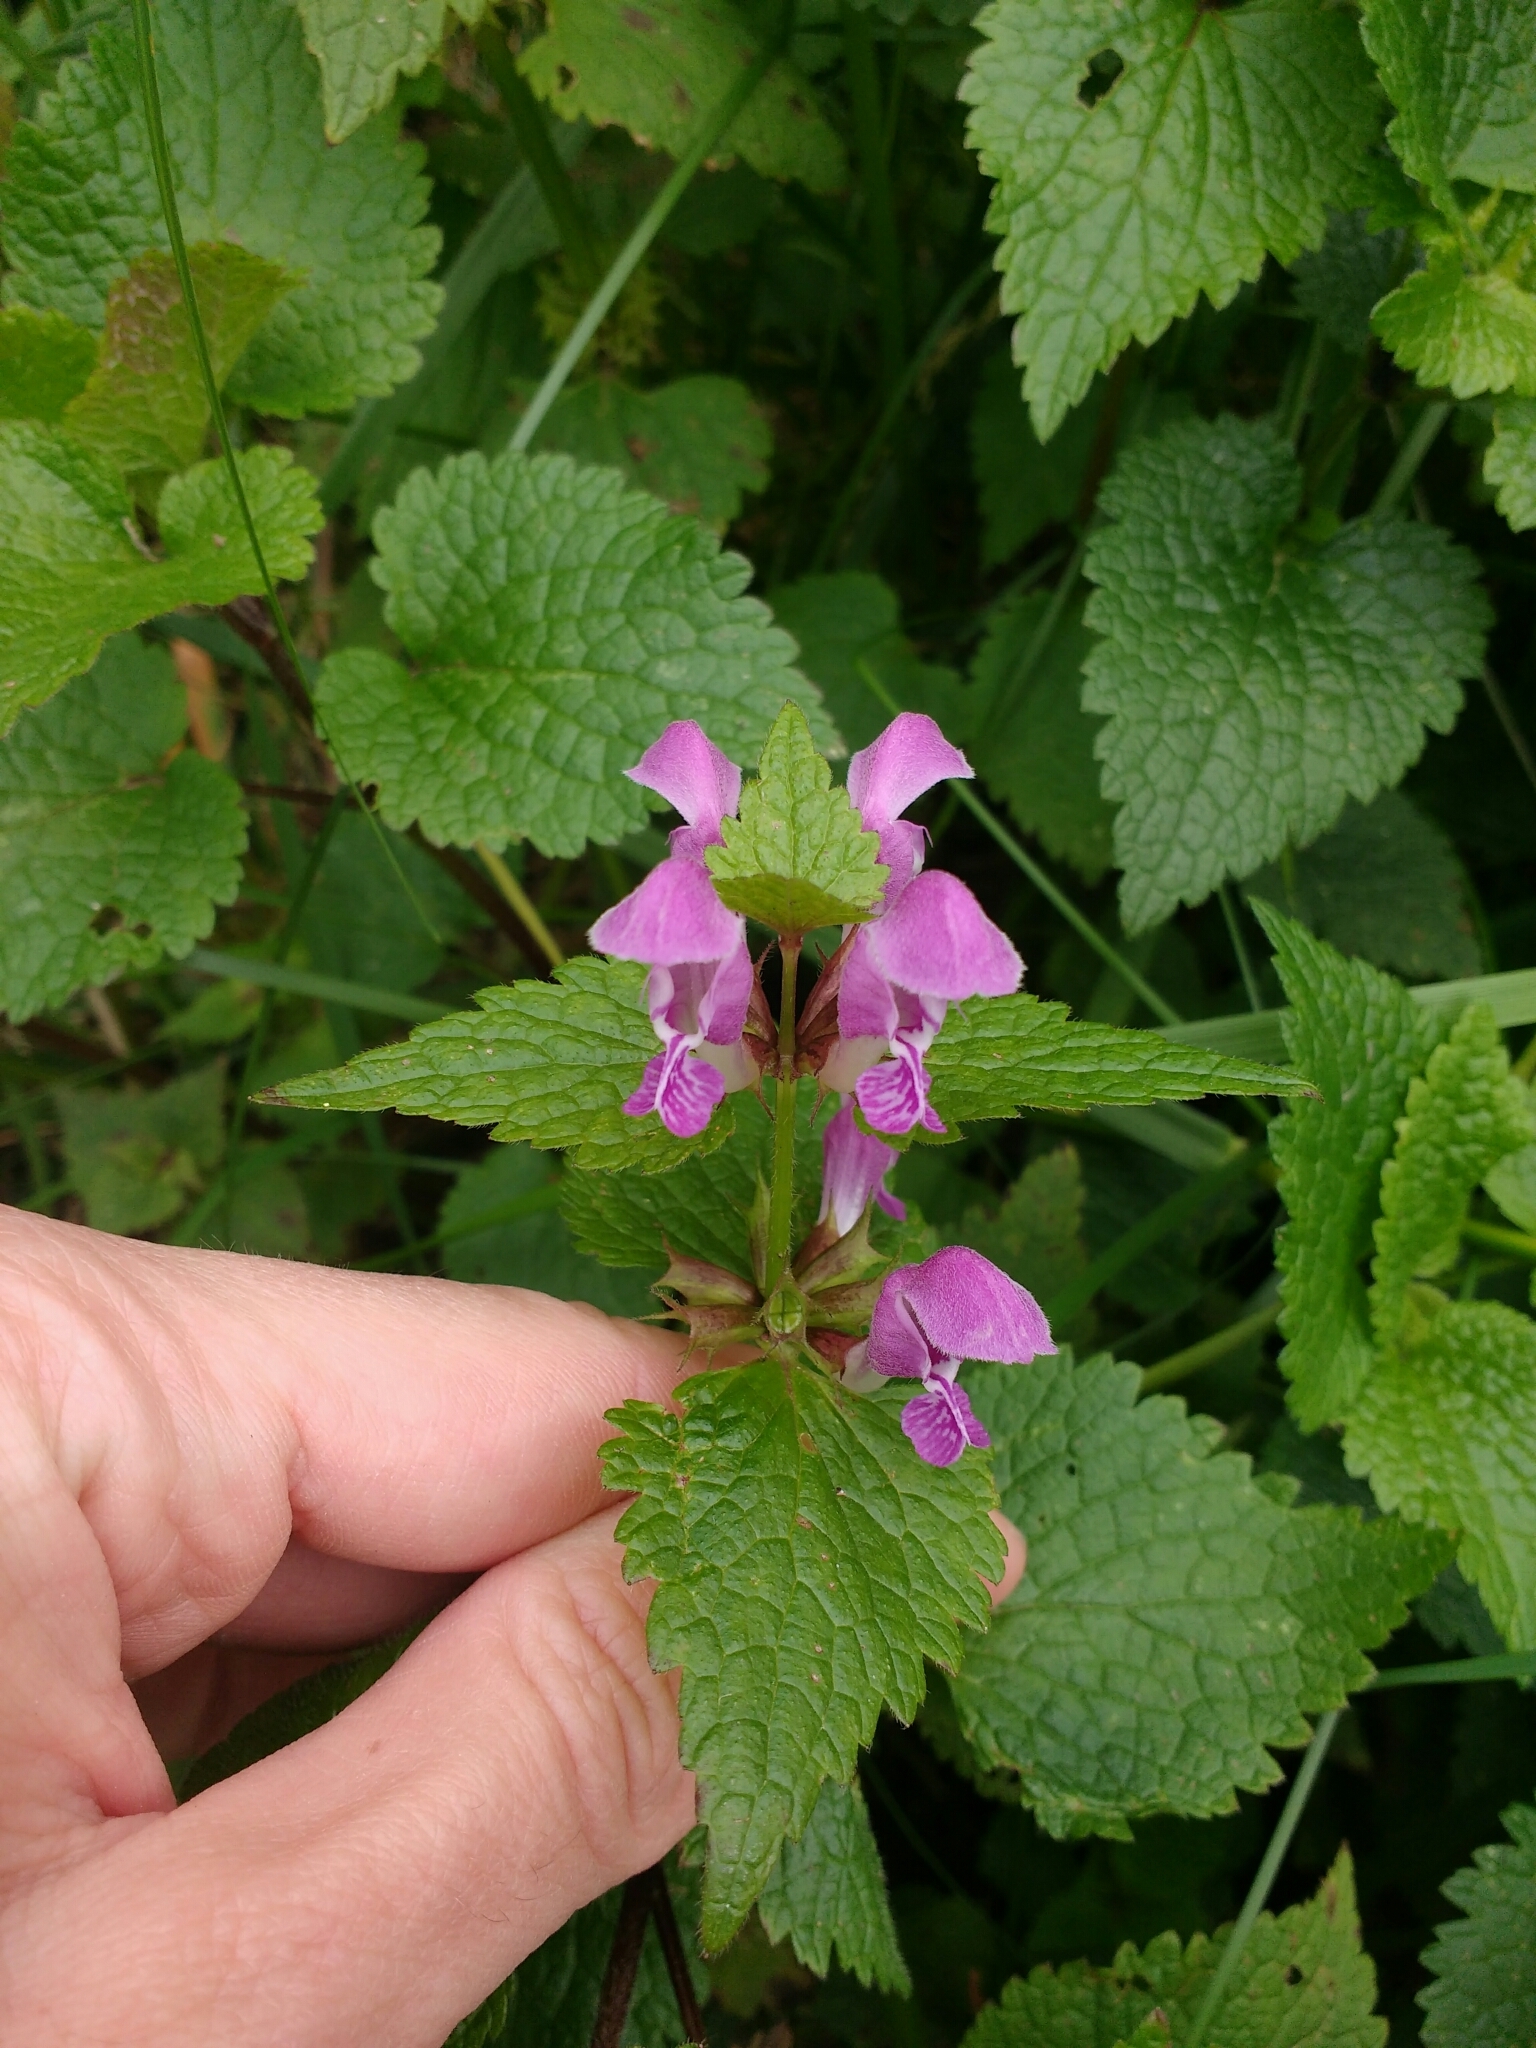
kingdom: Plantae
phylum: Tracheophyta
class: Magnoliopsida
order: Lamiales
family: Lamiaceae
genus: Lamium
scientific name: Lamium maculatum
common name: Spotted dead-nettle
